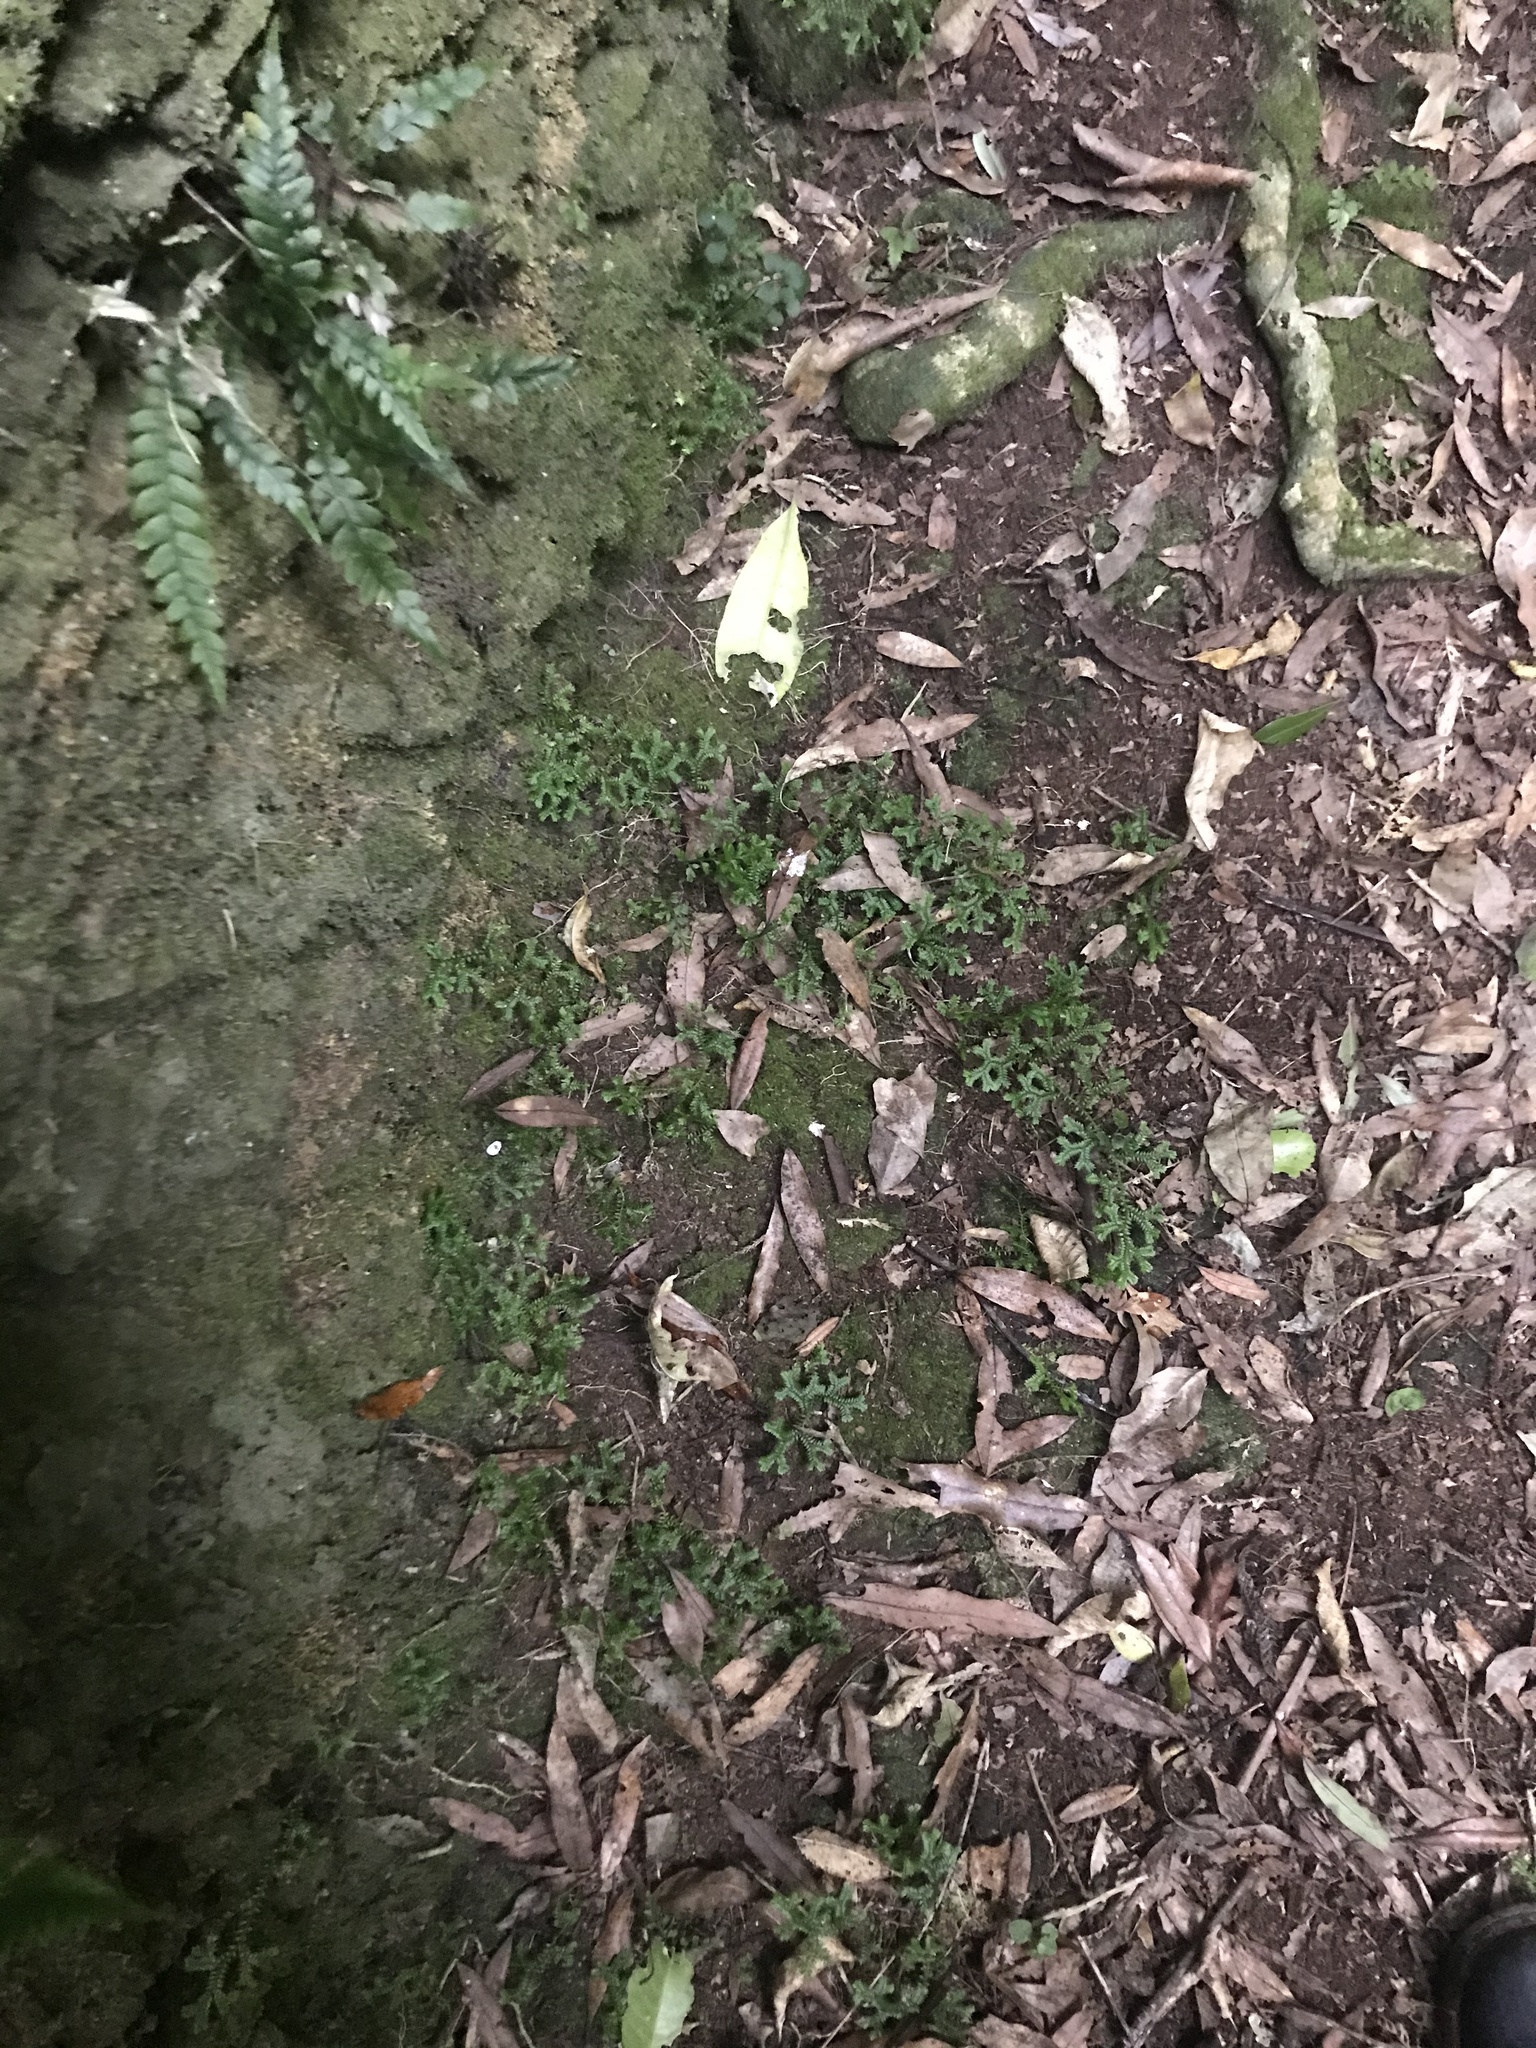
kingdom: Plantae
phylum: Tracheophyta
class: Lycopodiopsida
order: Selaginellales
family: Selaginellaceae
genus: Selaginella
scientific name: Selaginella kraussiana
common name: Krauss' spikemoss
